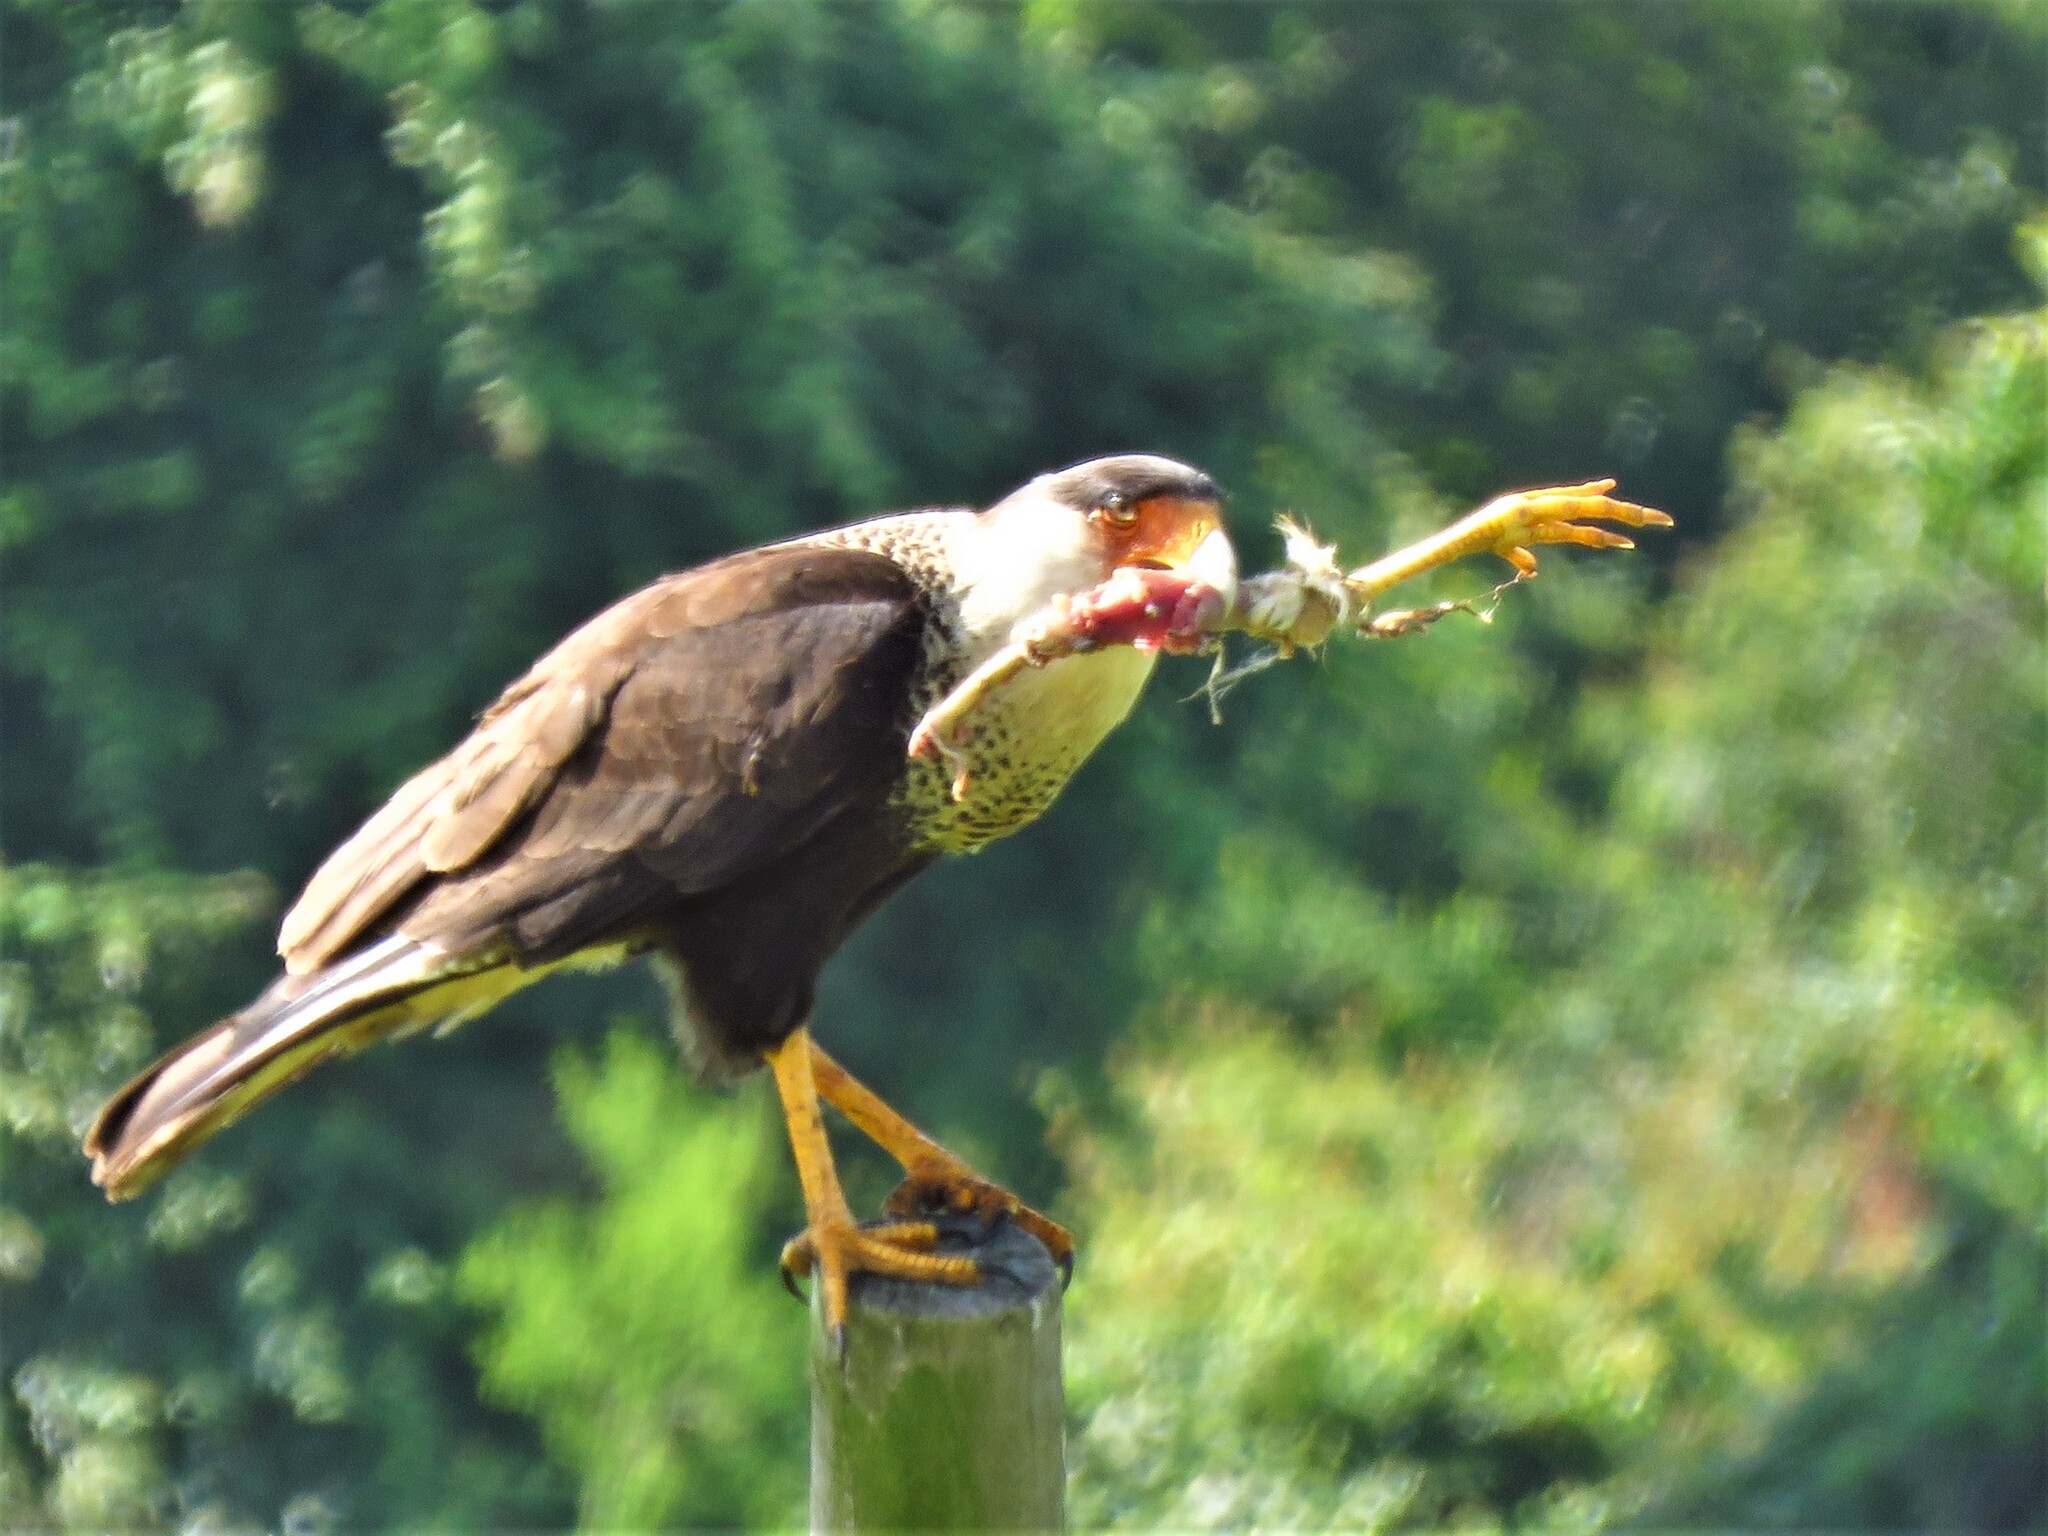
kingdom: Animalia
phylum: Chordata
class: Aves
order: Falconiformes
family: Falconidae
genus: Caracara
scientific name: Caracara plancus
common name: Southern caracara
